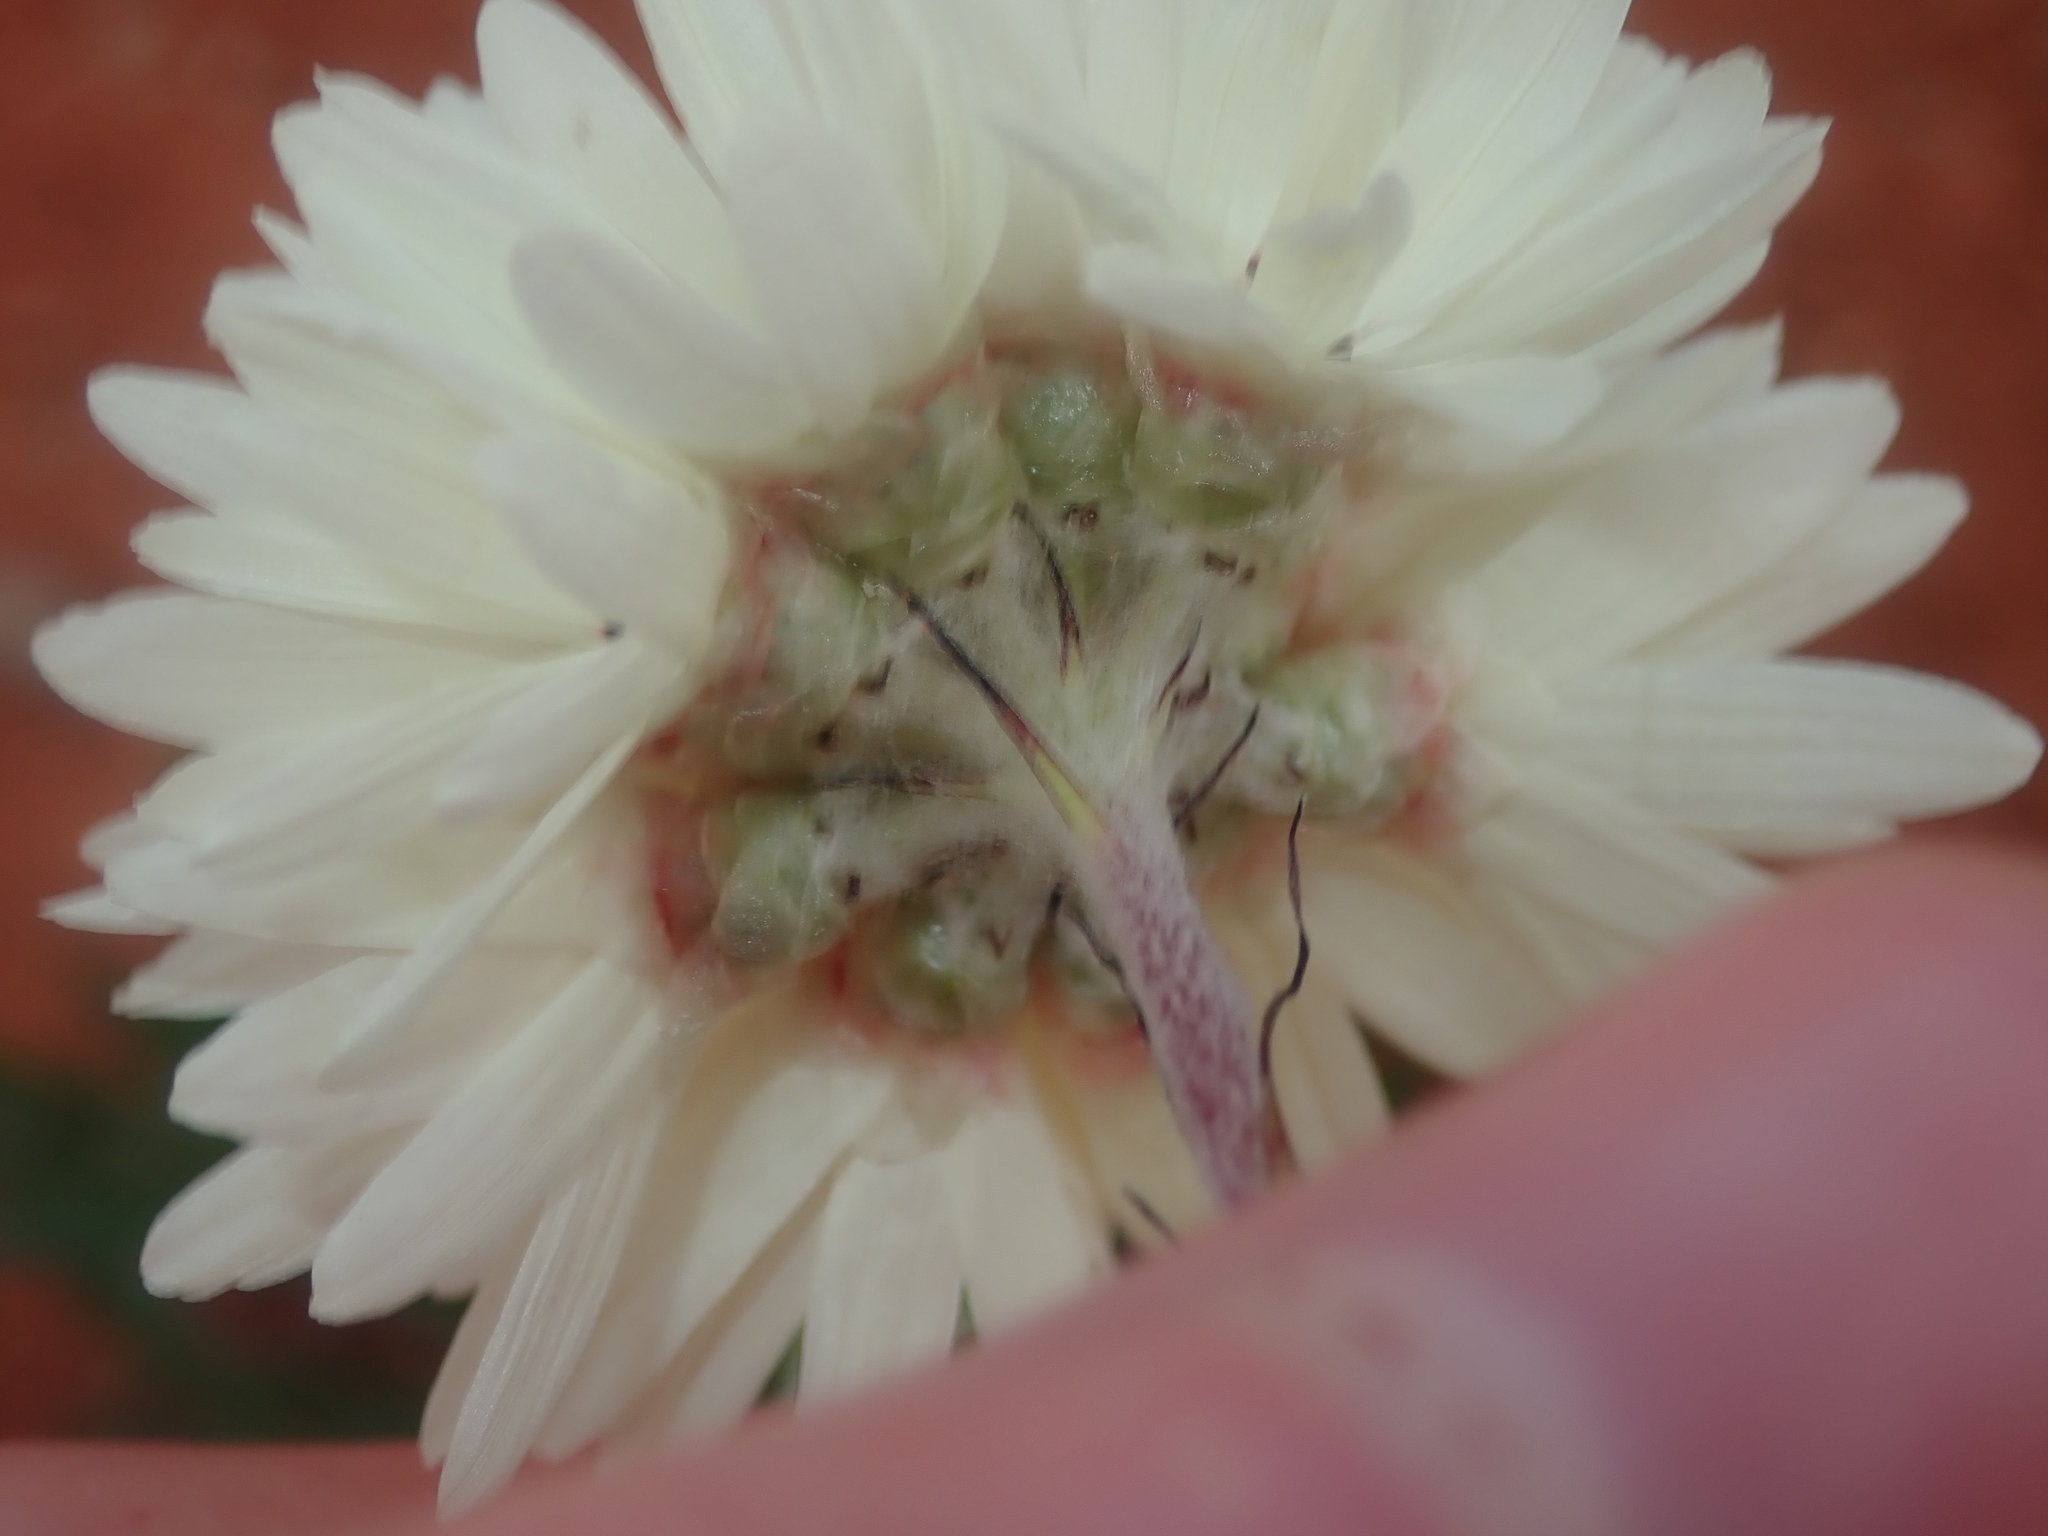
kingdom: Plantae
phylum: Tracheophyta
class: Magnoliopsida
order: Asterales
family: Asteraceae
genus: Cephalipterum
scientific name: Cephalipterum drummondii
